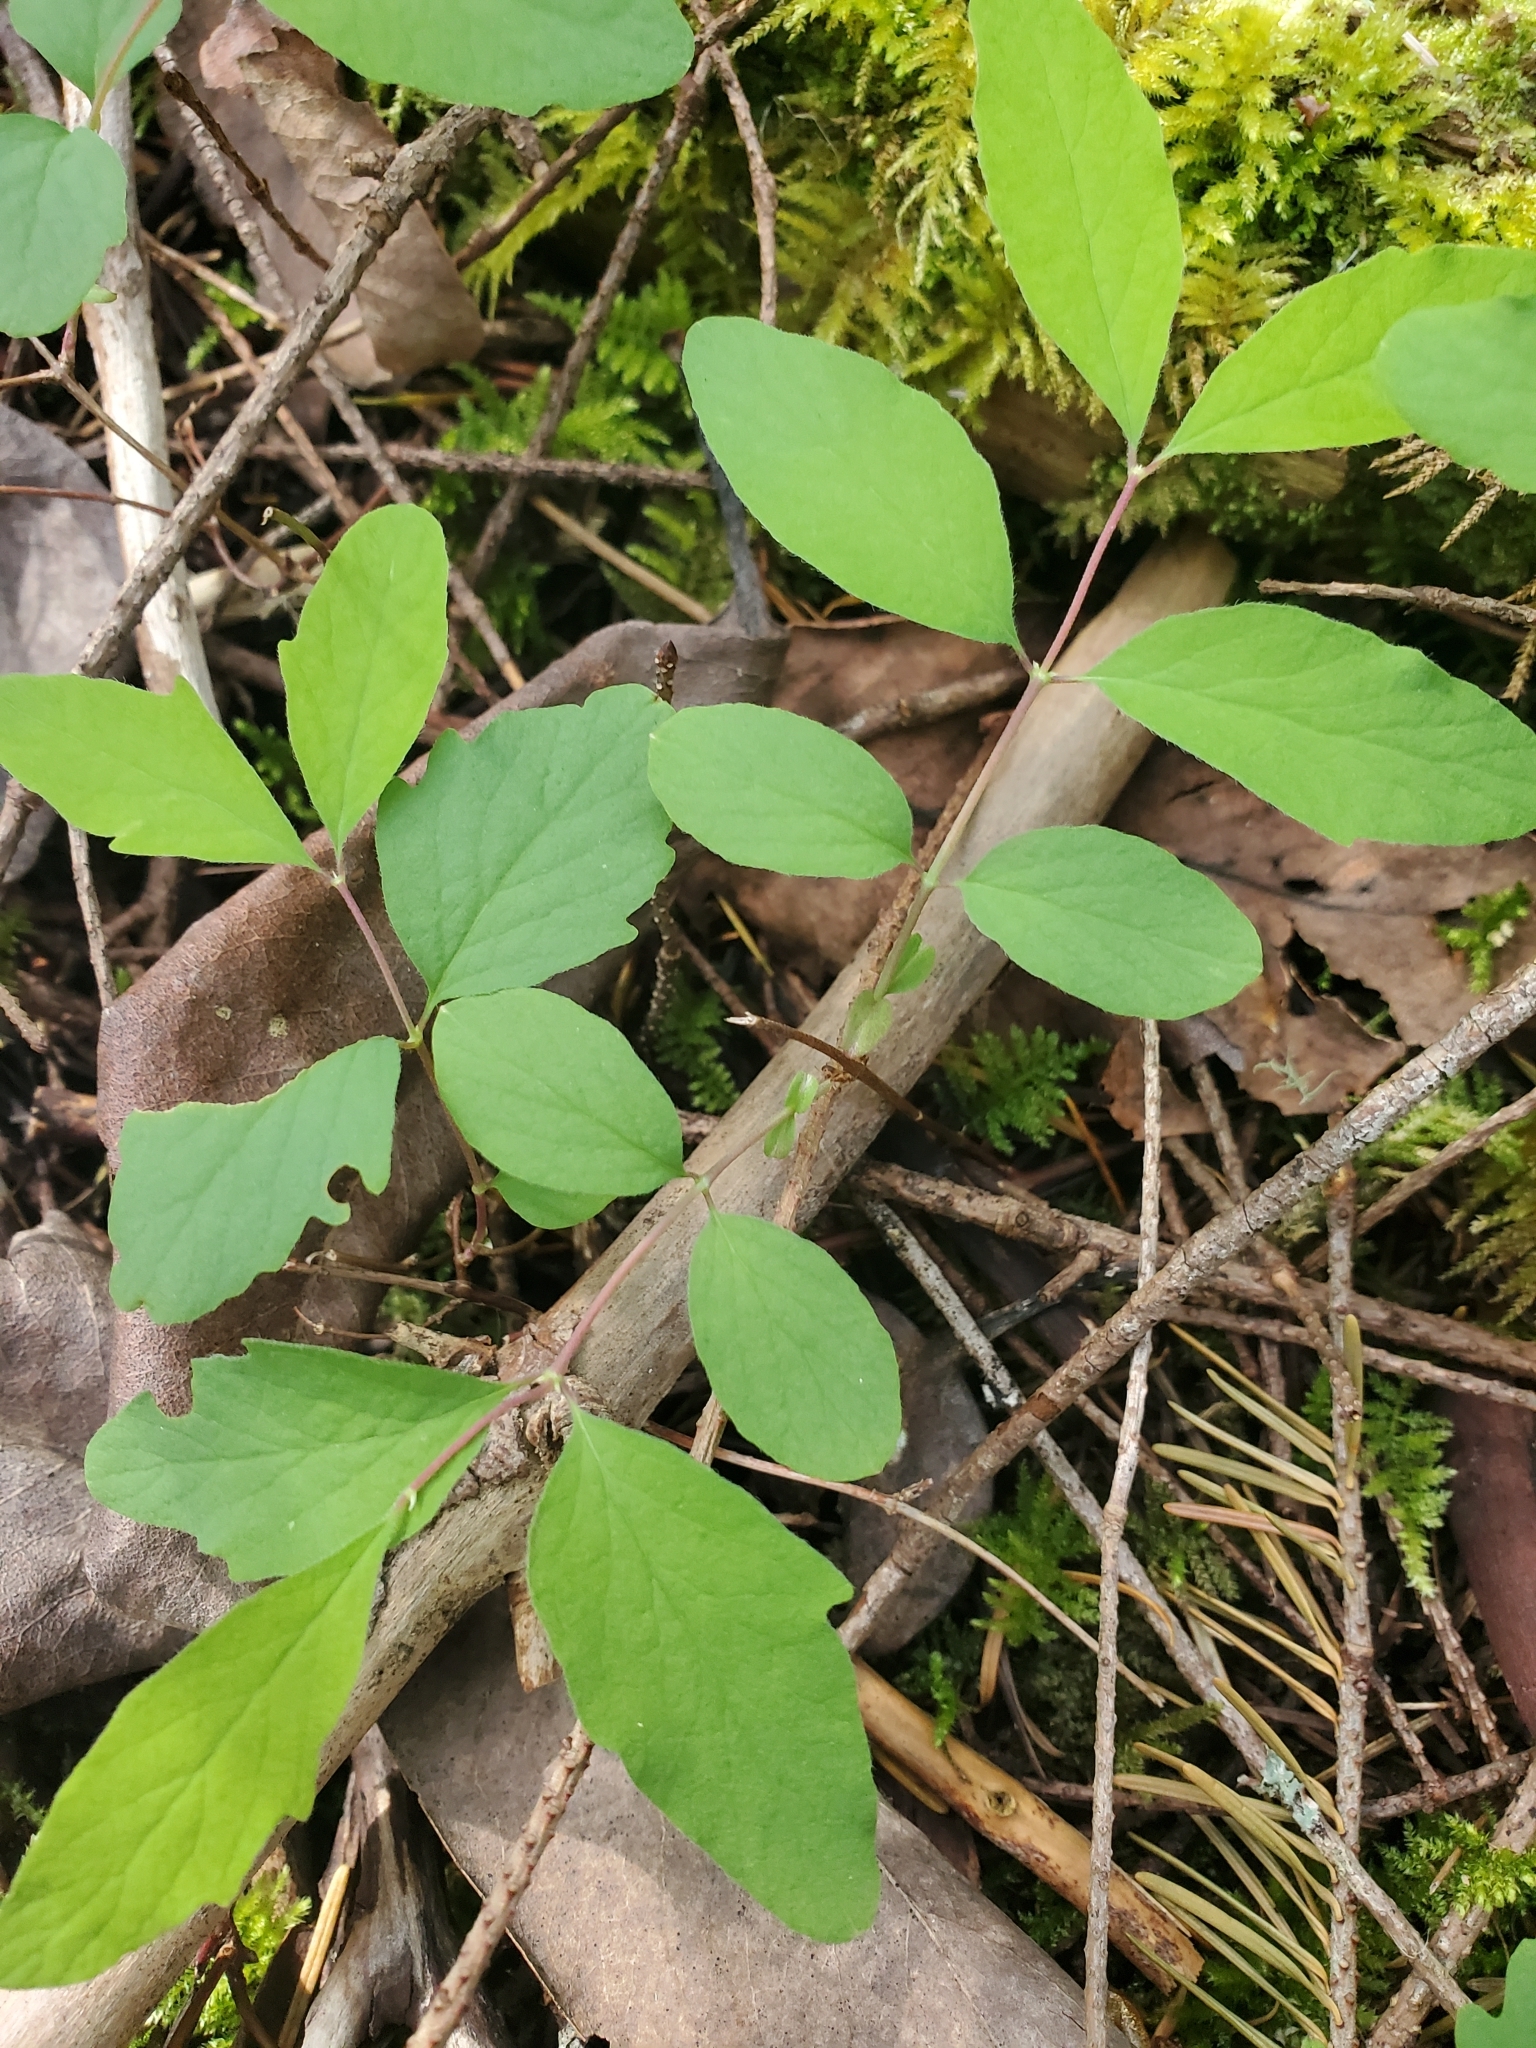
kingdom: Plantae
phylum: Tracheophyta
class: Magnoliopsida
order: Dipsacales
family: Caprifoliaceae
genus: Symphoricarpos
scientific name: Symphoricarpos mollis
